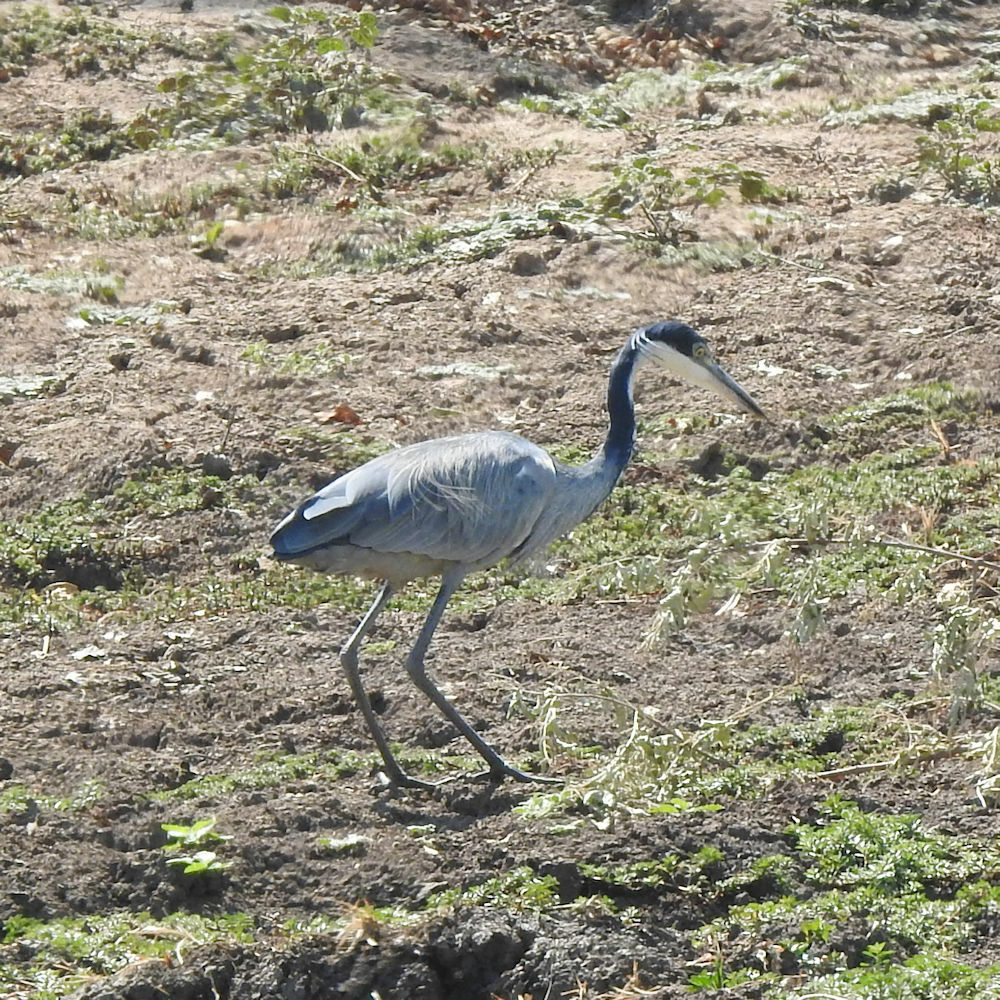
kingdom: Animalia
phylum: Chordata
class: Aves
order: Pelecaniformes
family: Ardeidae
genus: Ardea
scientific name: Ardea melanocephala
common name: Black-headed heron
